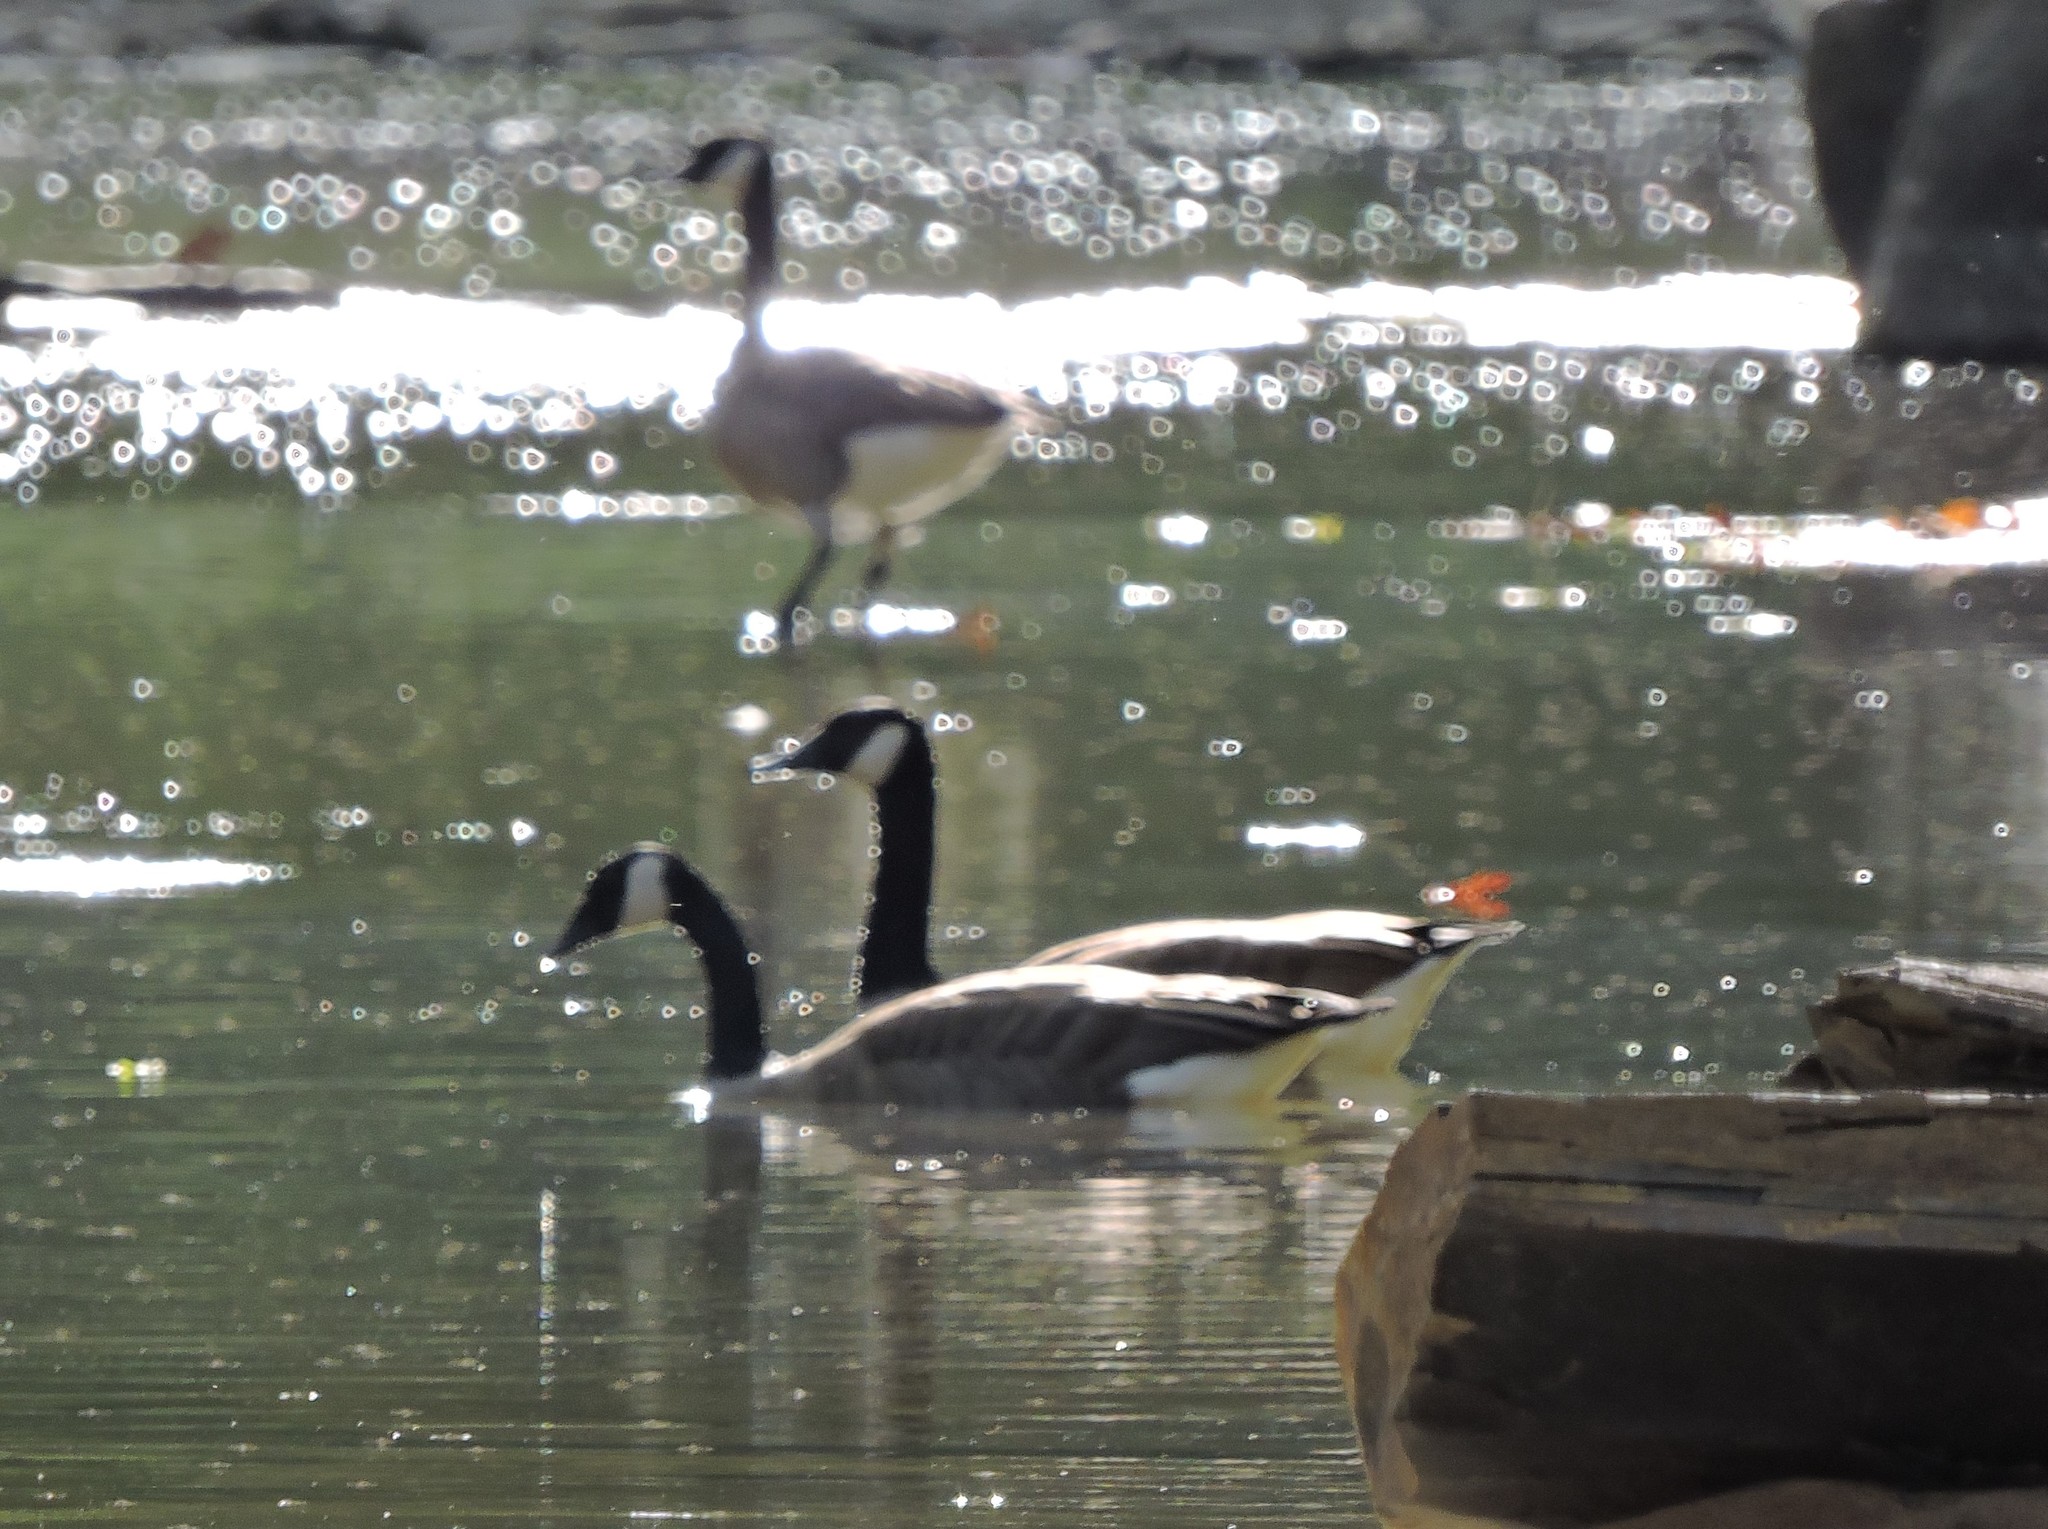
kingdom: Animalia
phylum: Chordata
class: Aves
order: Anseriformes
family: Anatidae
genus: Branta
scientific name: Branta canadensis
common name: Canada goose
